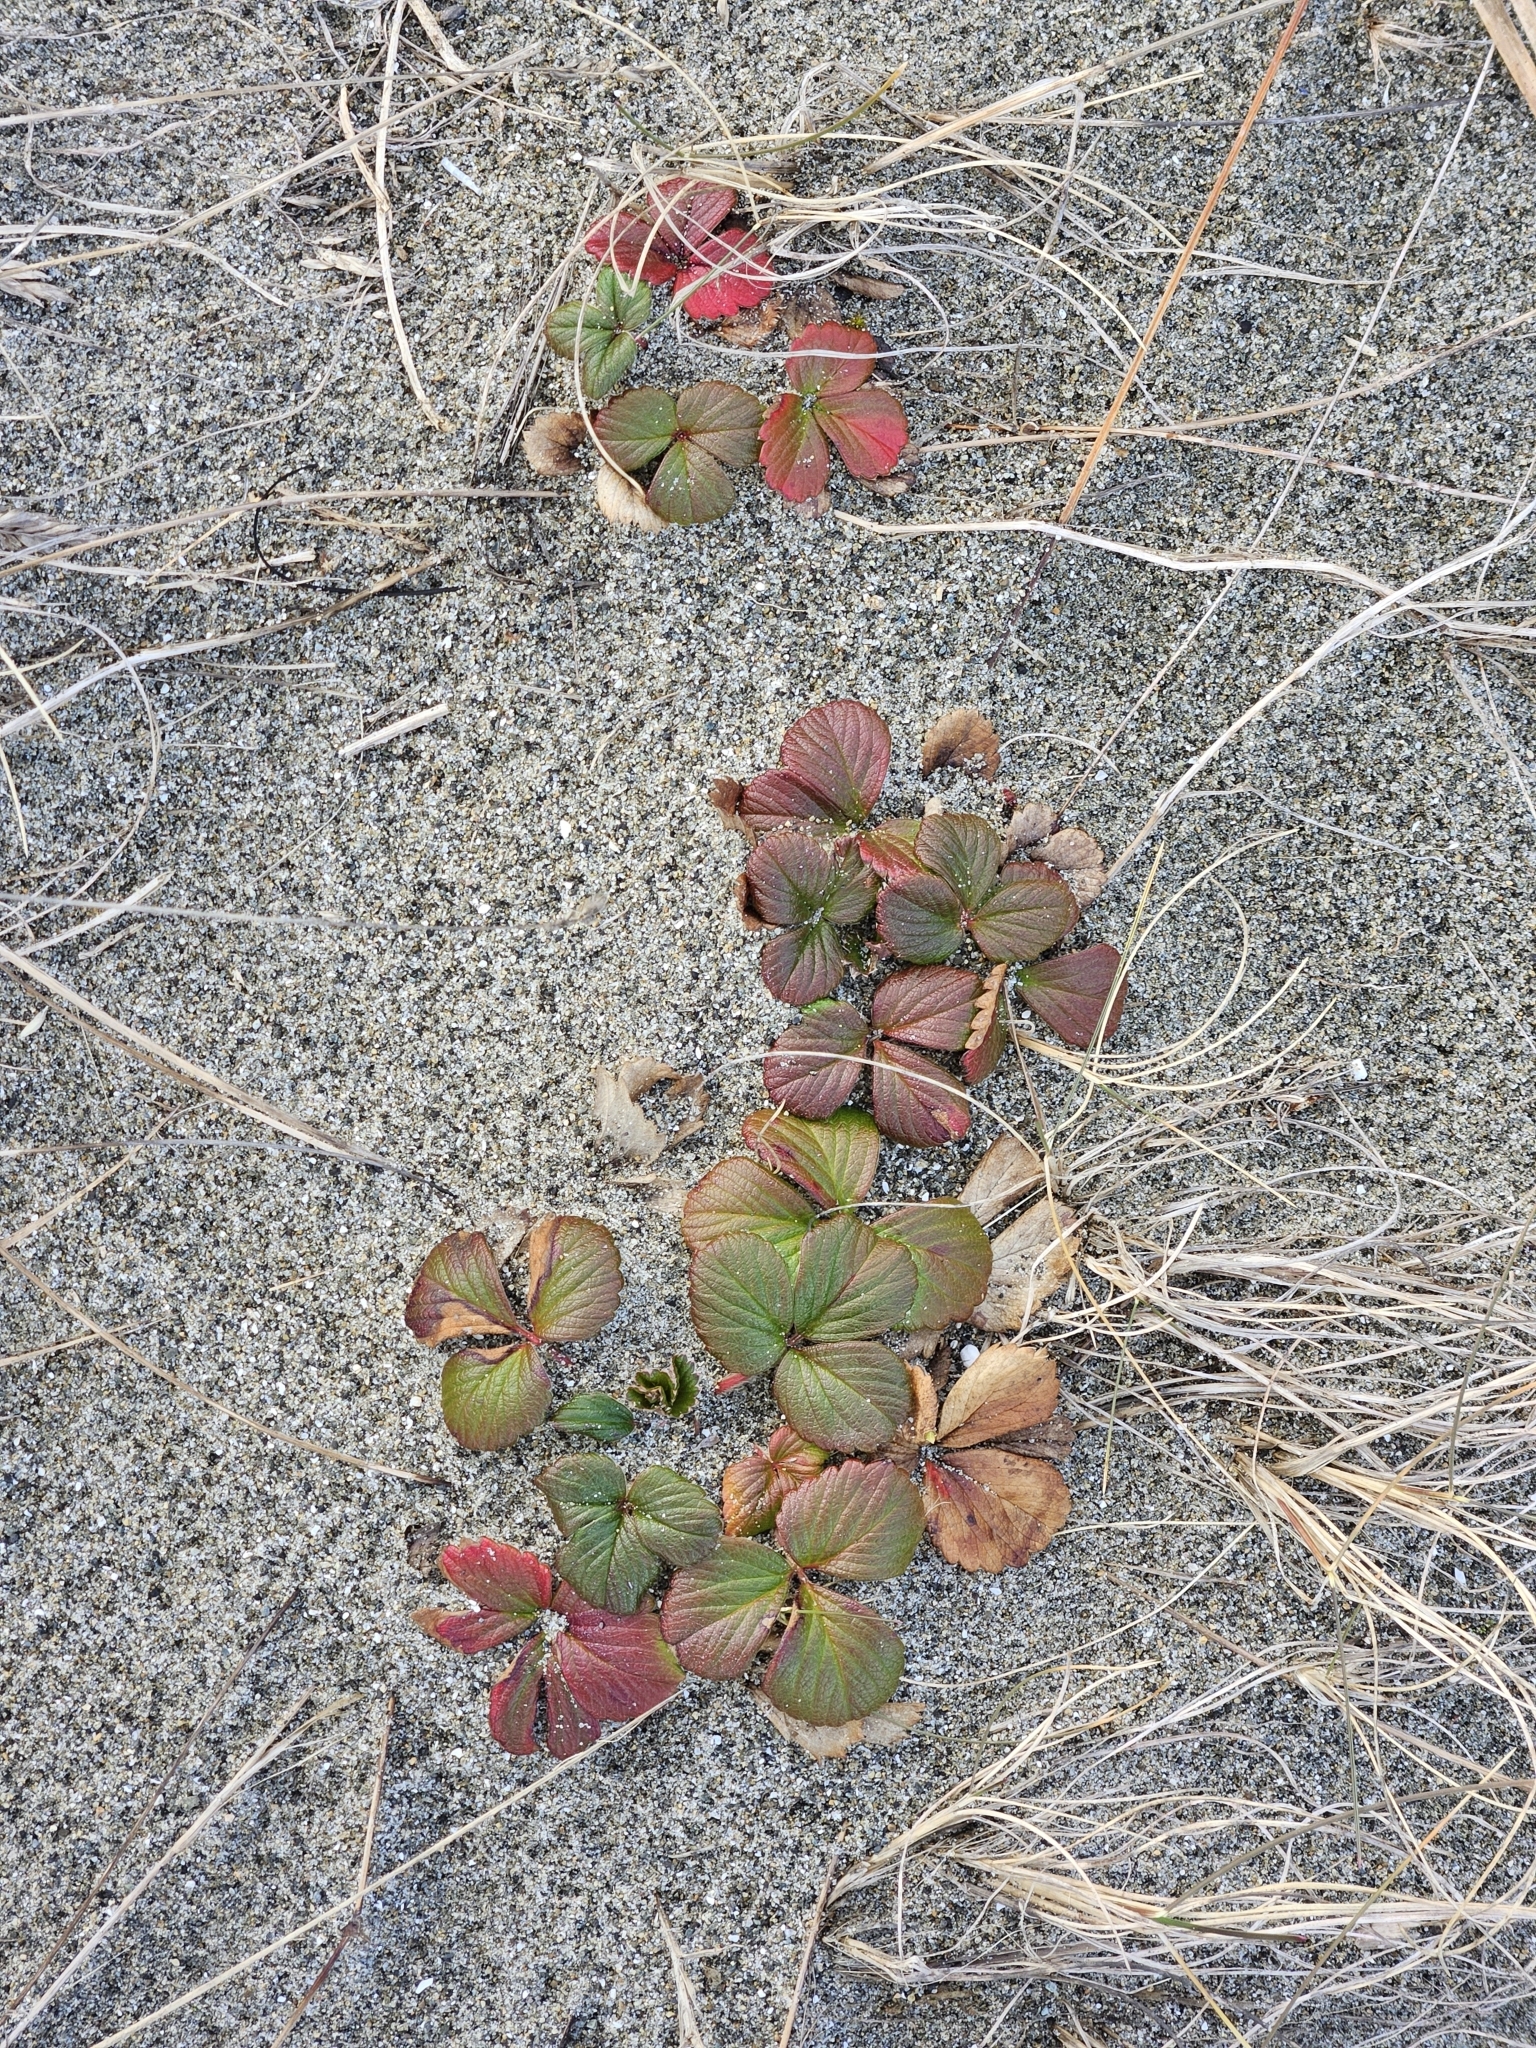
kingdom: Plantae
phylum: Tracheophyta
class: Magnoliopsida
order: Rosales
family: Rosaceae
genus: Fragaria
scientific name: Fragaria chiloensis
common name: Beach strawberry
